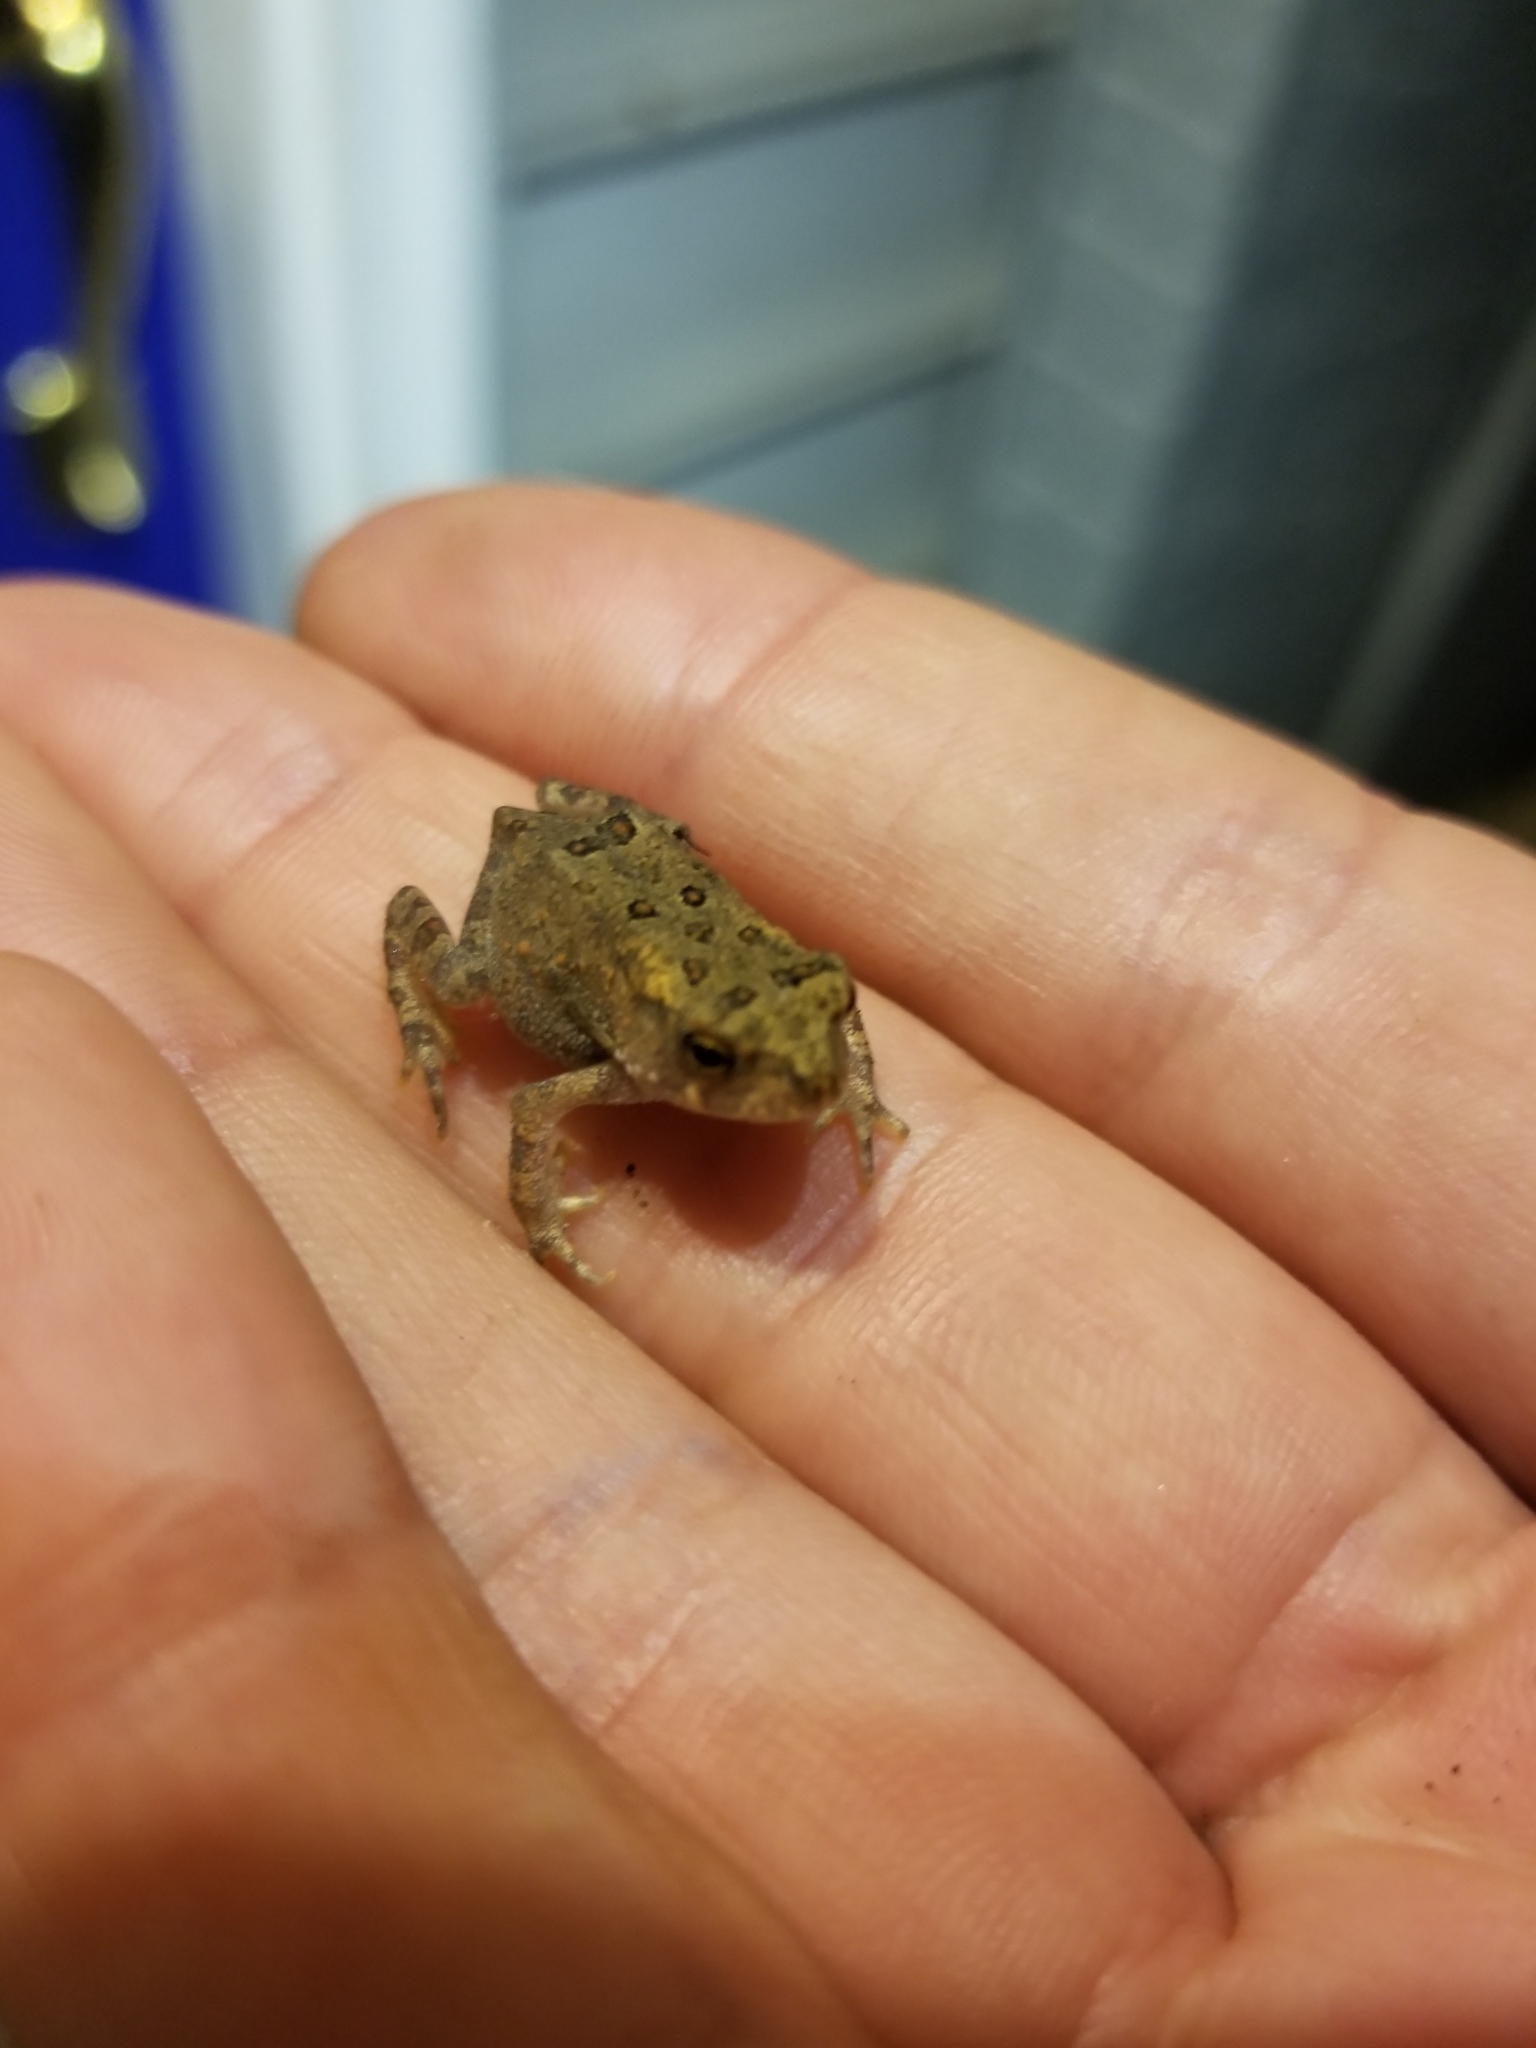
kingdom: Animalia
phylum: Chordata
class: Amphibia
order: Anura
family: Bufonidae
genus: Anaxyrus
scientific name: Anaxyrus americanus
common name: American toad
